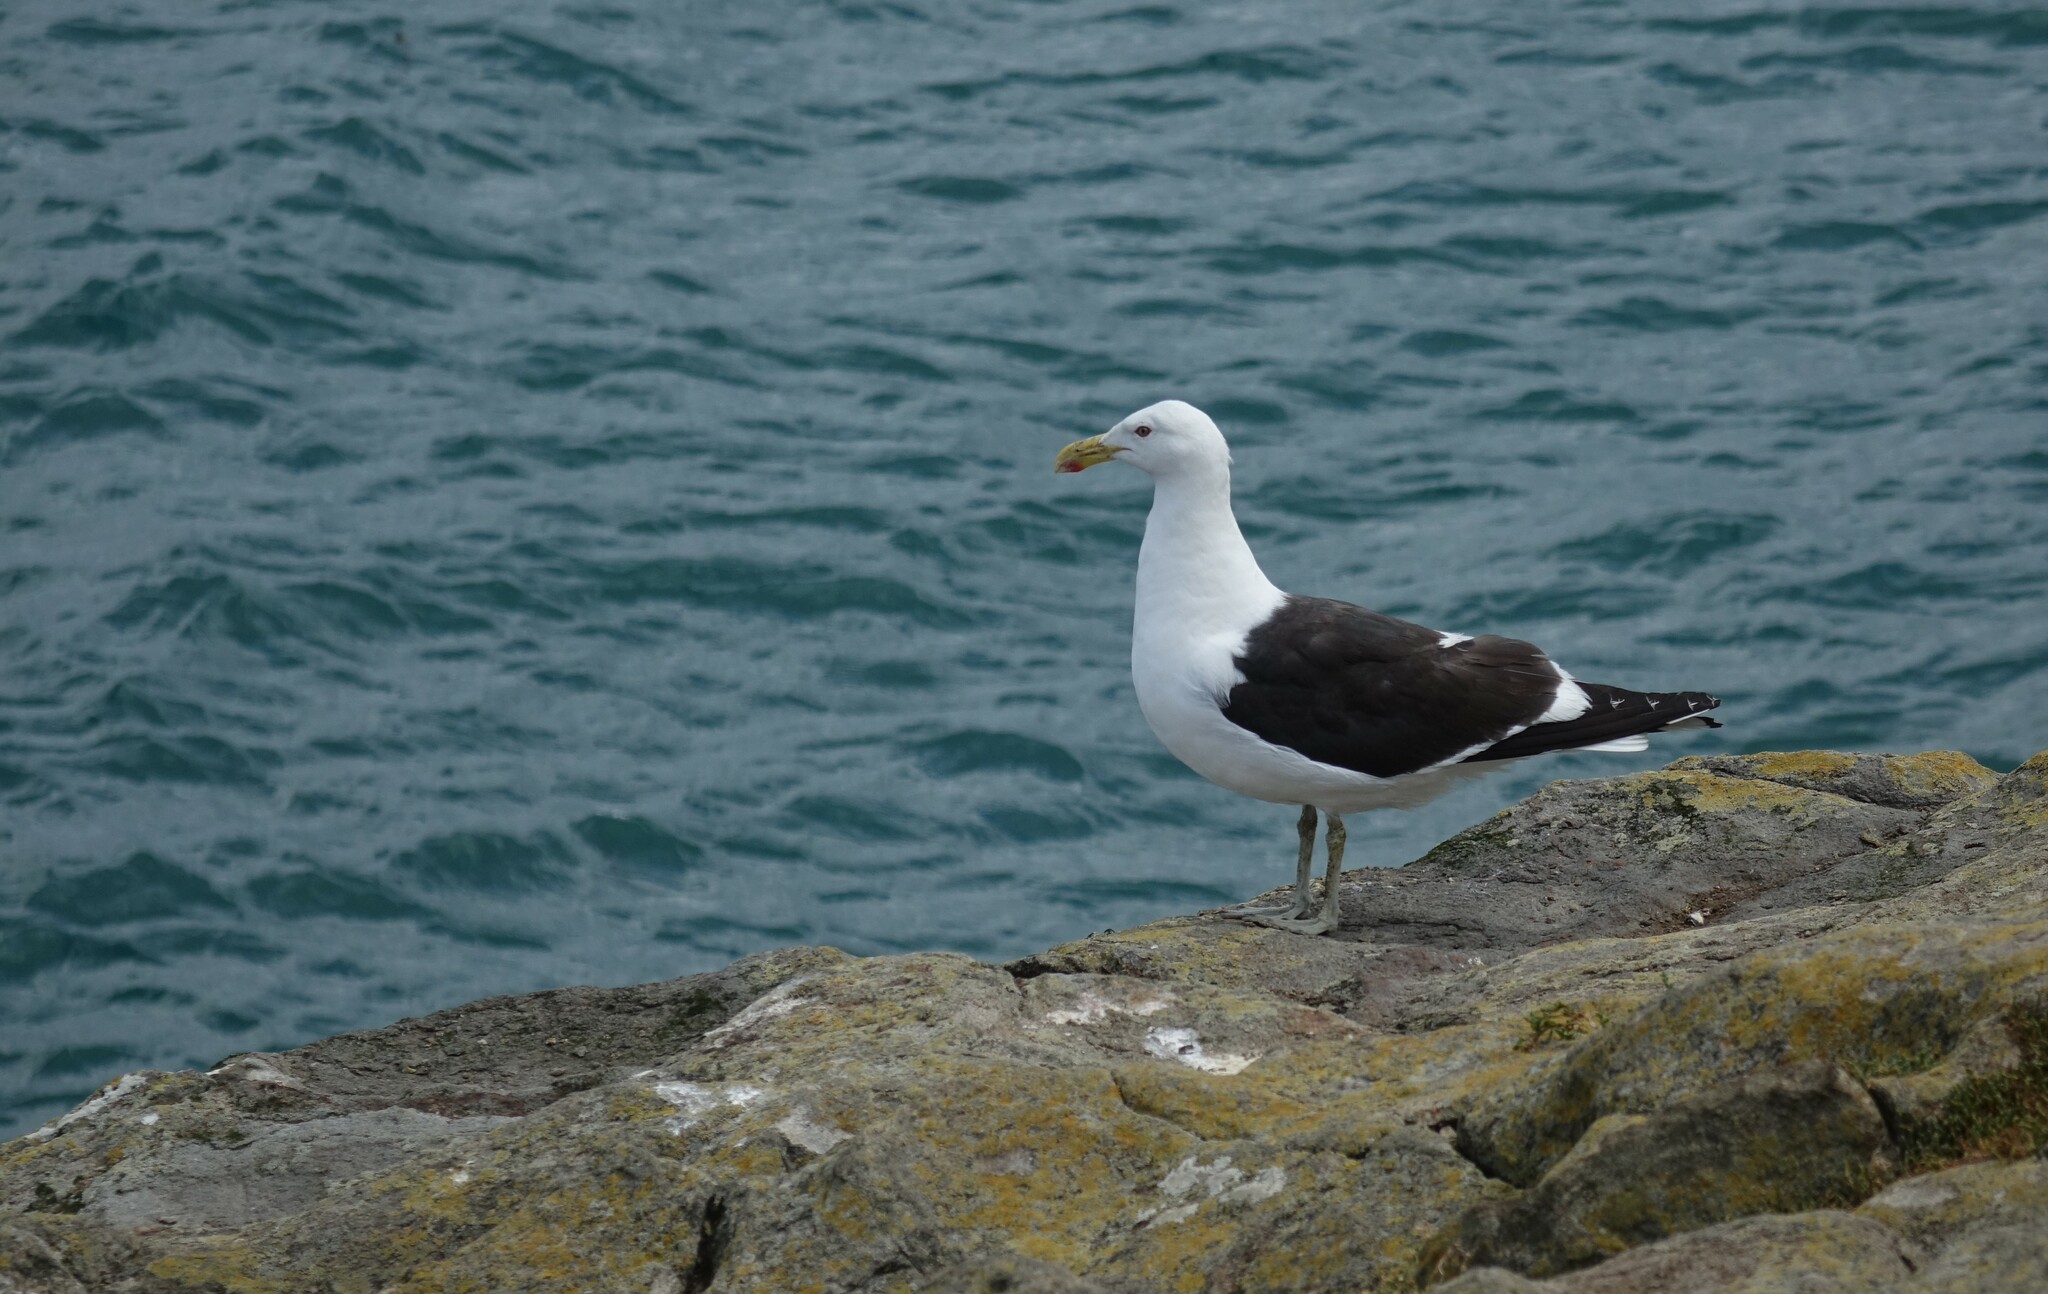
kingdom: Animalia
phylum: Chordata
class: Aves
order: Charadriiformes
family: Laridae
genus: Larus
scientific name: Larus dominicanus
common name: Kelp gull
